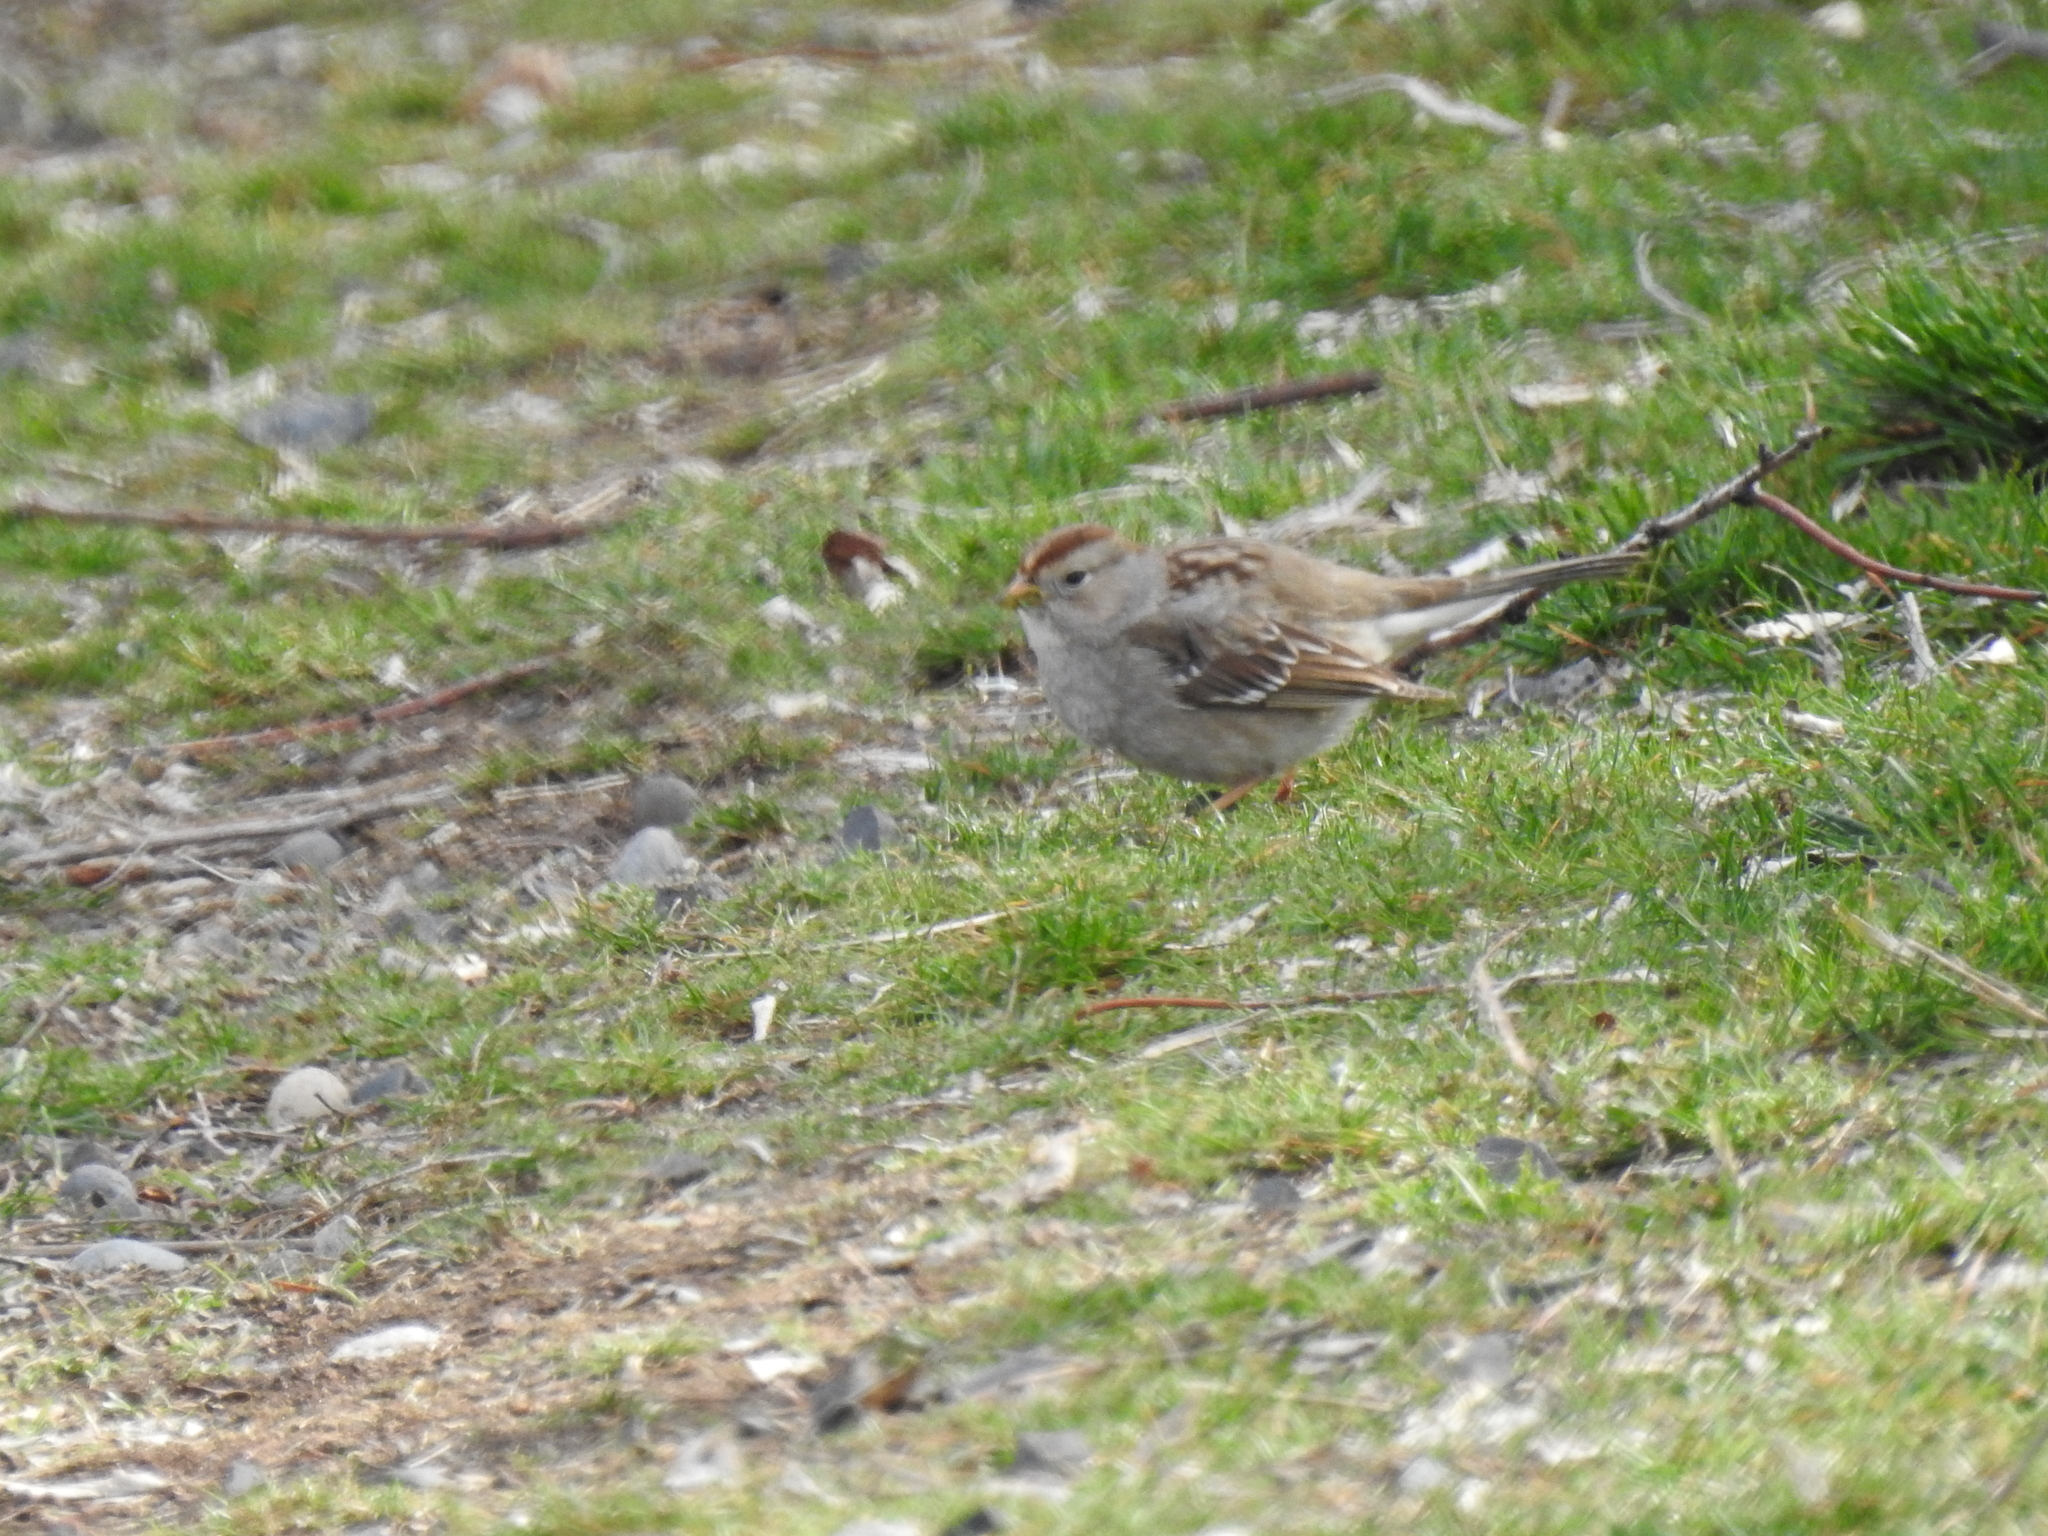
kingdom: Animalia
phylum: Chordata
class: Aves
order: Passeriformes
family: Passerellidae
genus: Zonotrichia
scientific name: Zonotrichia leucophrys
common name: White-crowned sparrow
